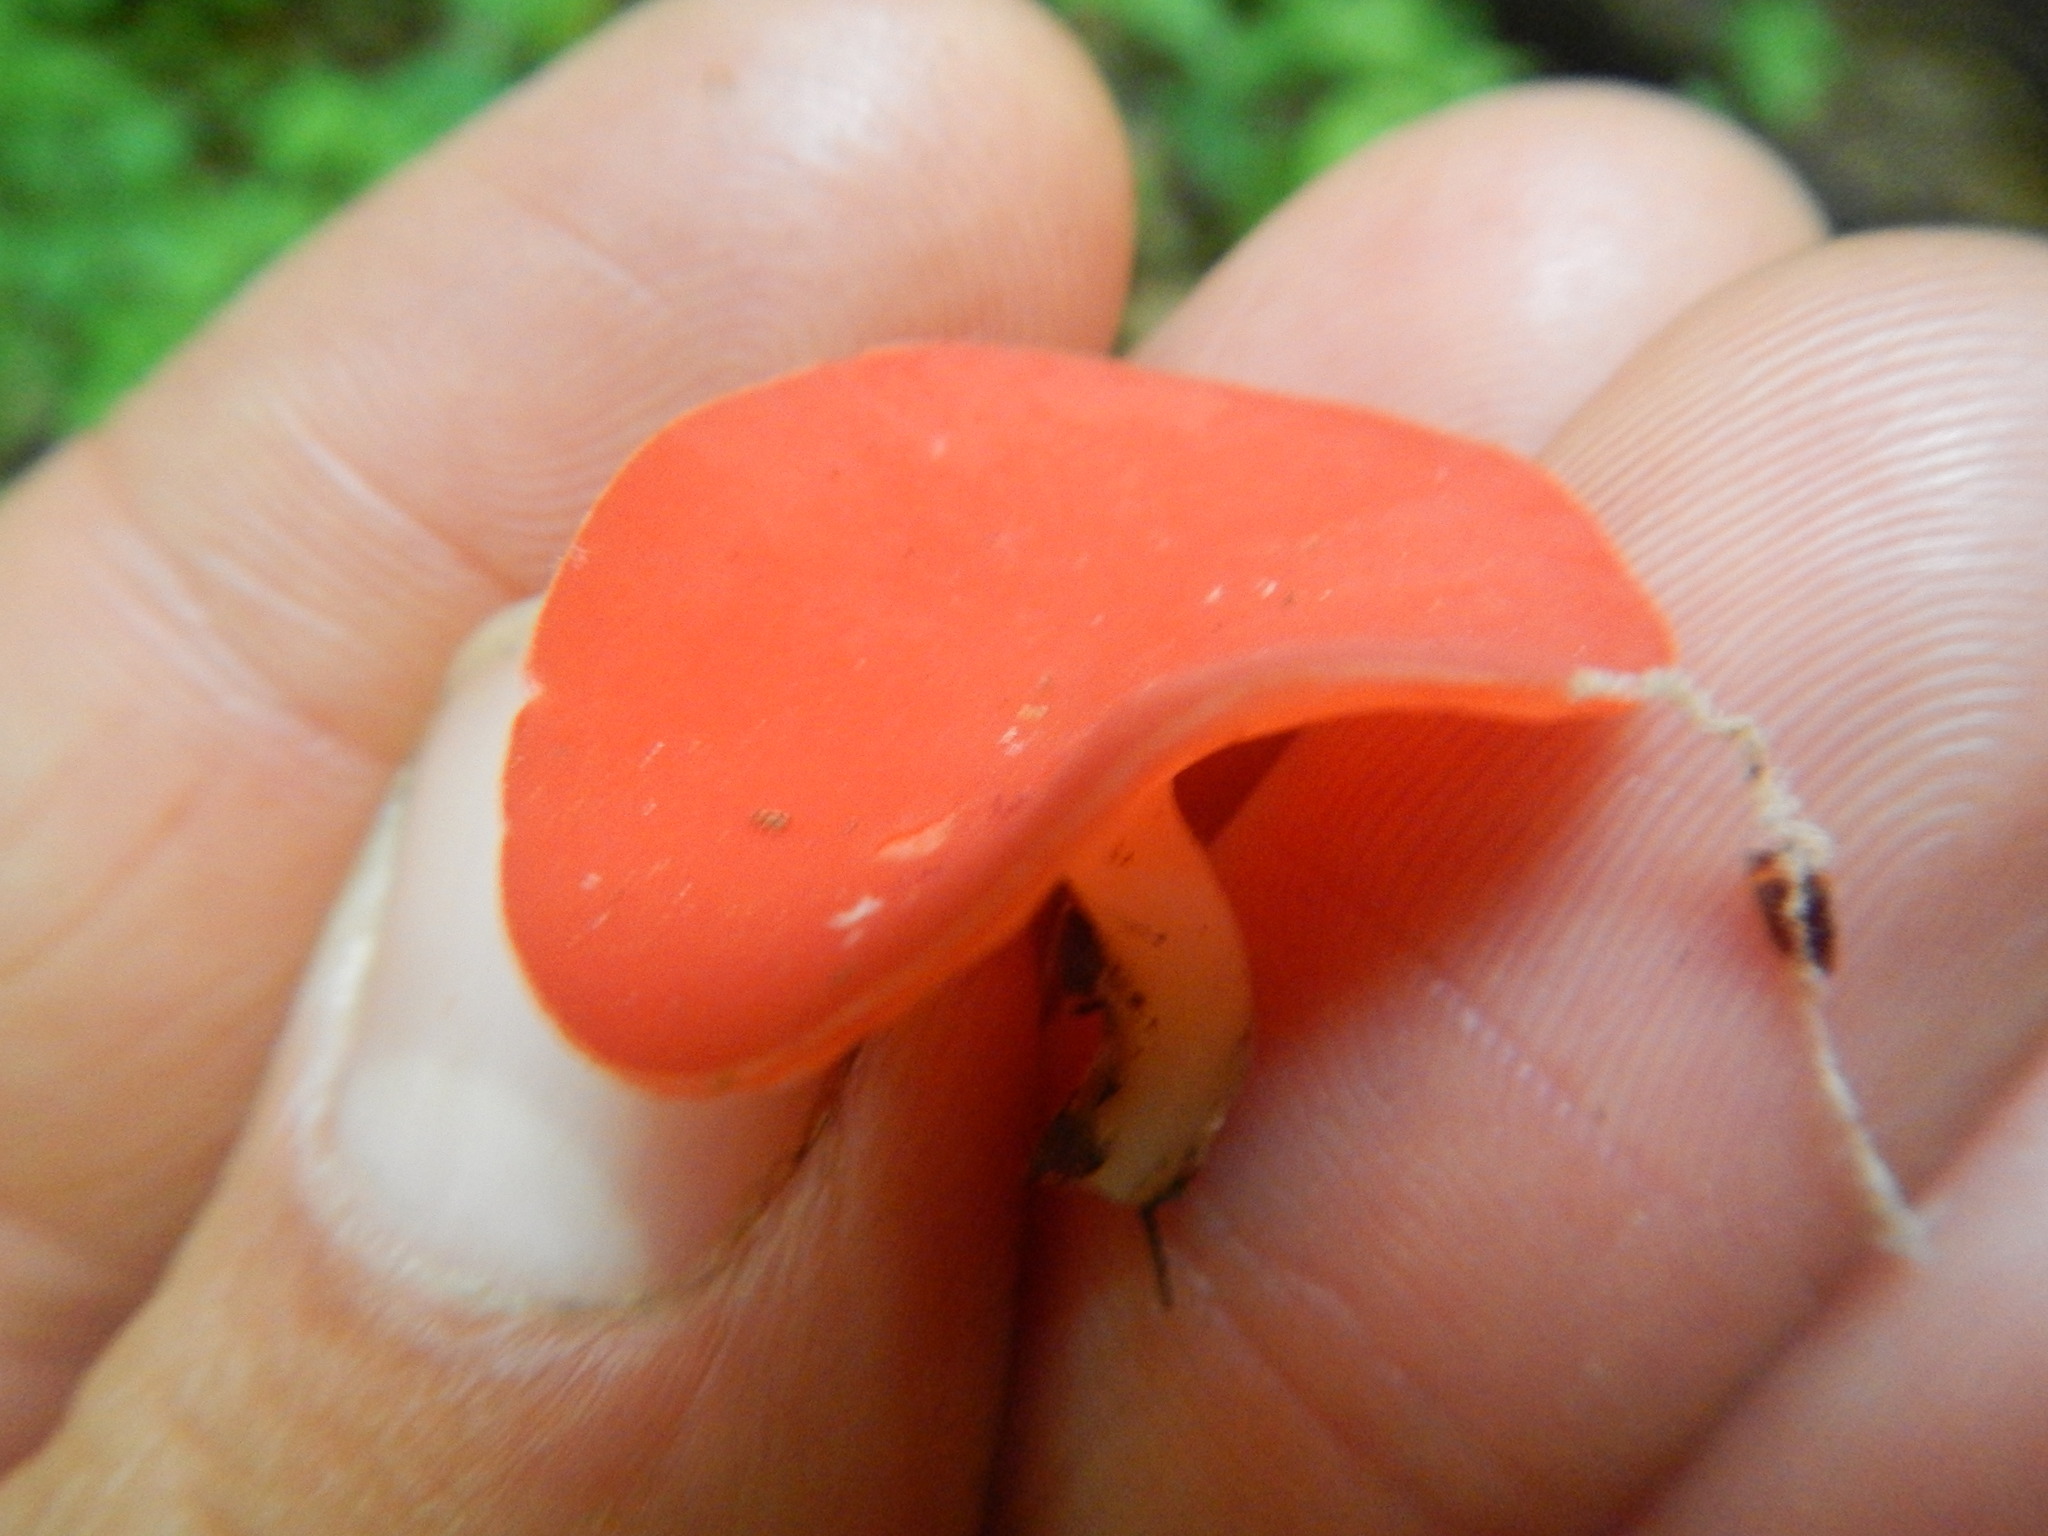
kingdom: Fungi
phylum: Ascomycota
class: Pezizomycetes
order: Pezizales
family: Sarcoscyphaceae
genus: Sarcoscypha
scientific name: Sarcoscypha occidentalis
